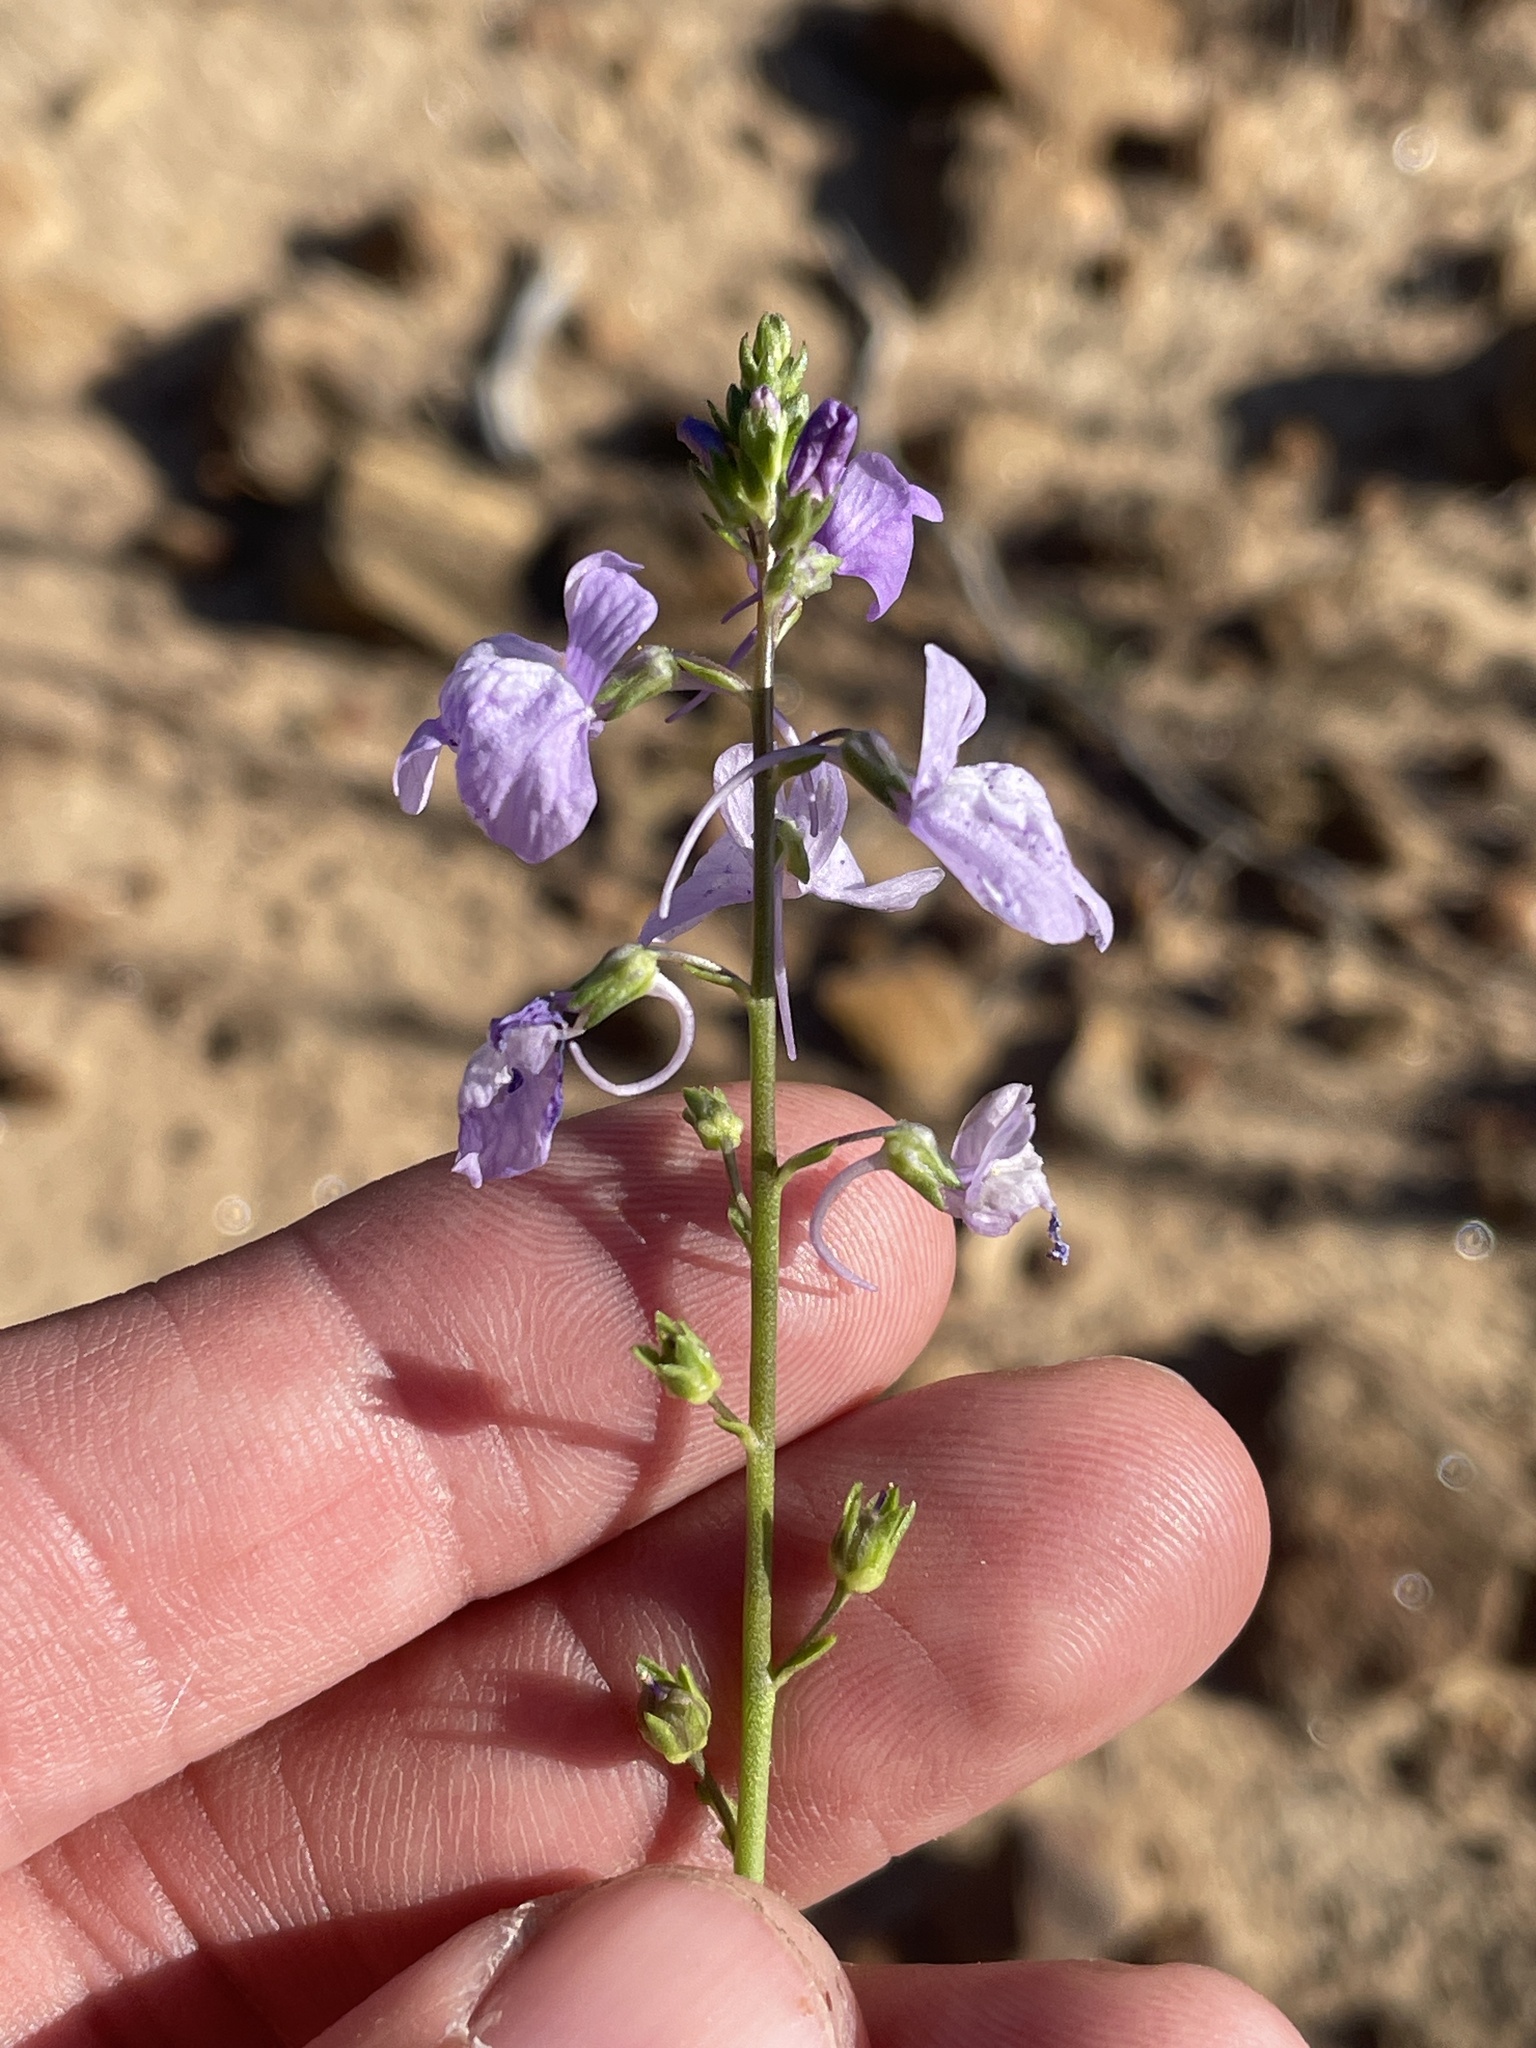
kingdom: Plantae
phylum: Tracheophyta
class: Magnoliopsida
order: Lamiales
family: Plantaginaceae
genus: Nuttallanthus
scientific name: Nuttallanthus texanus
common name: Texas toadflax
